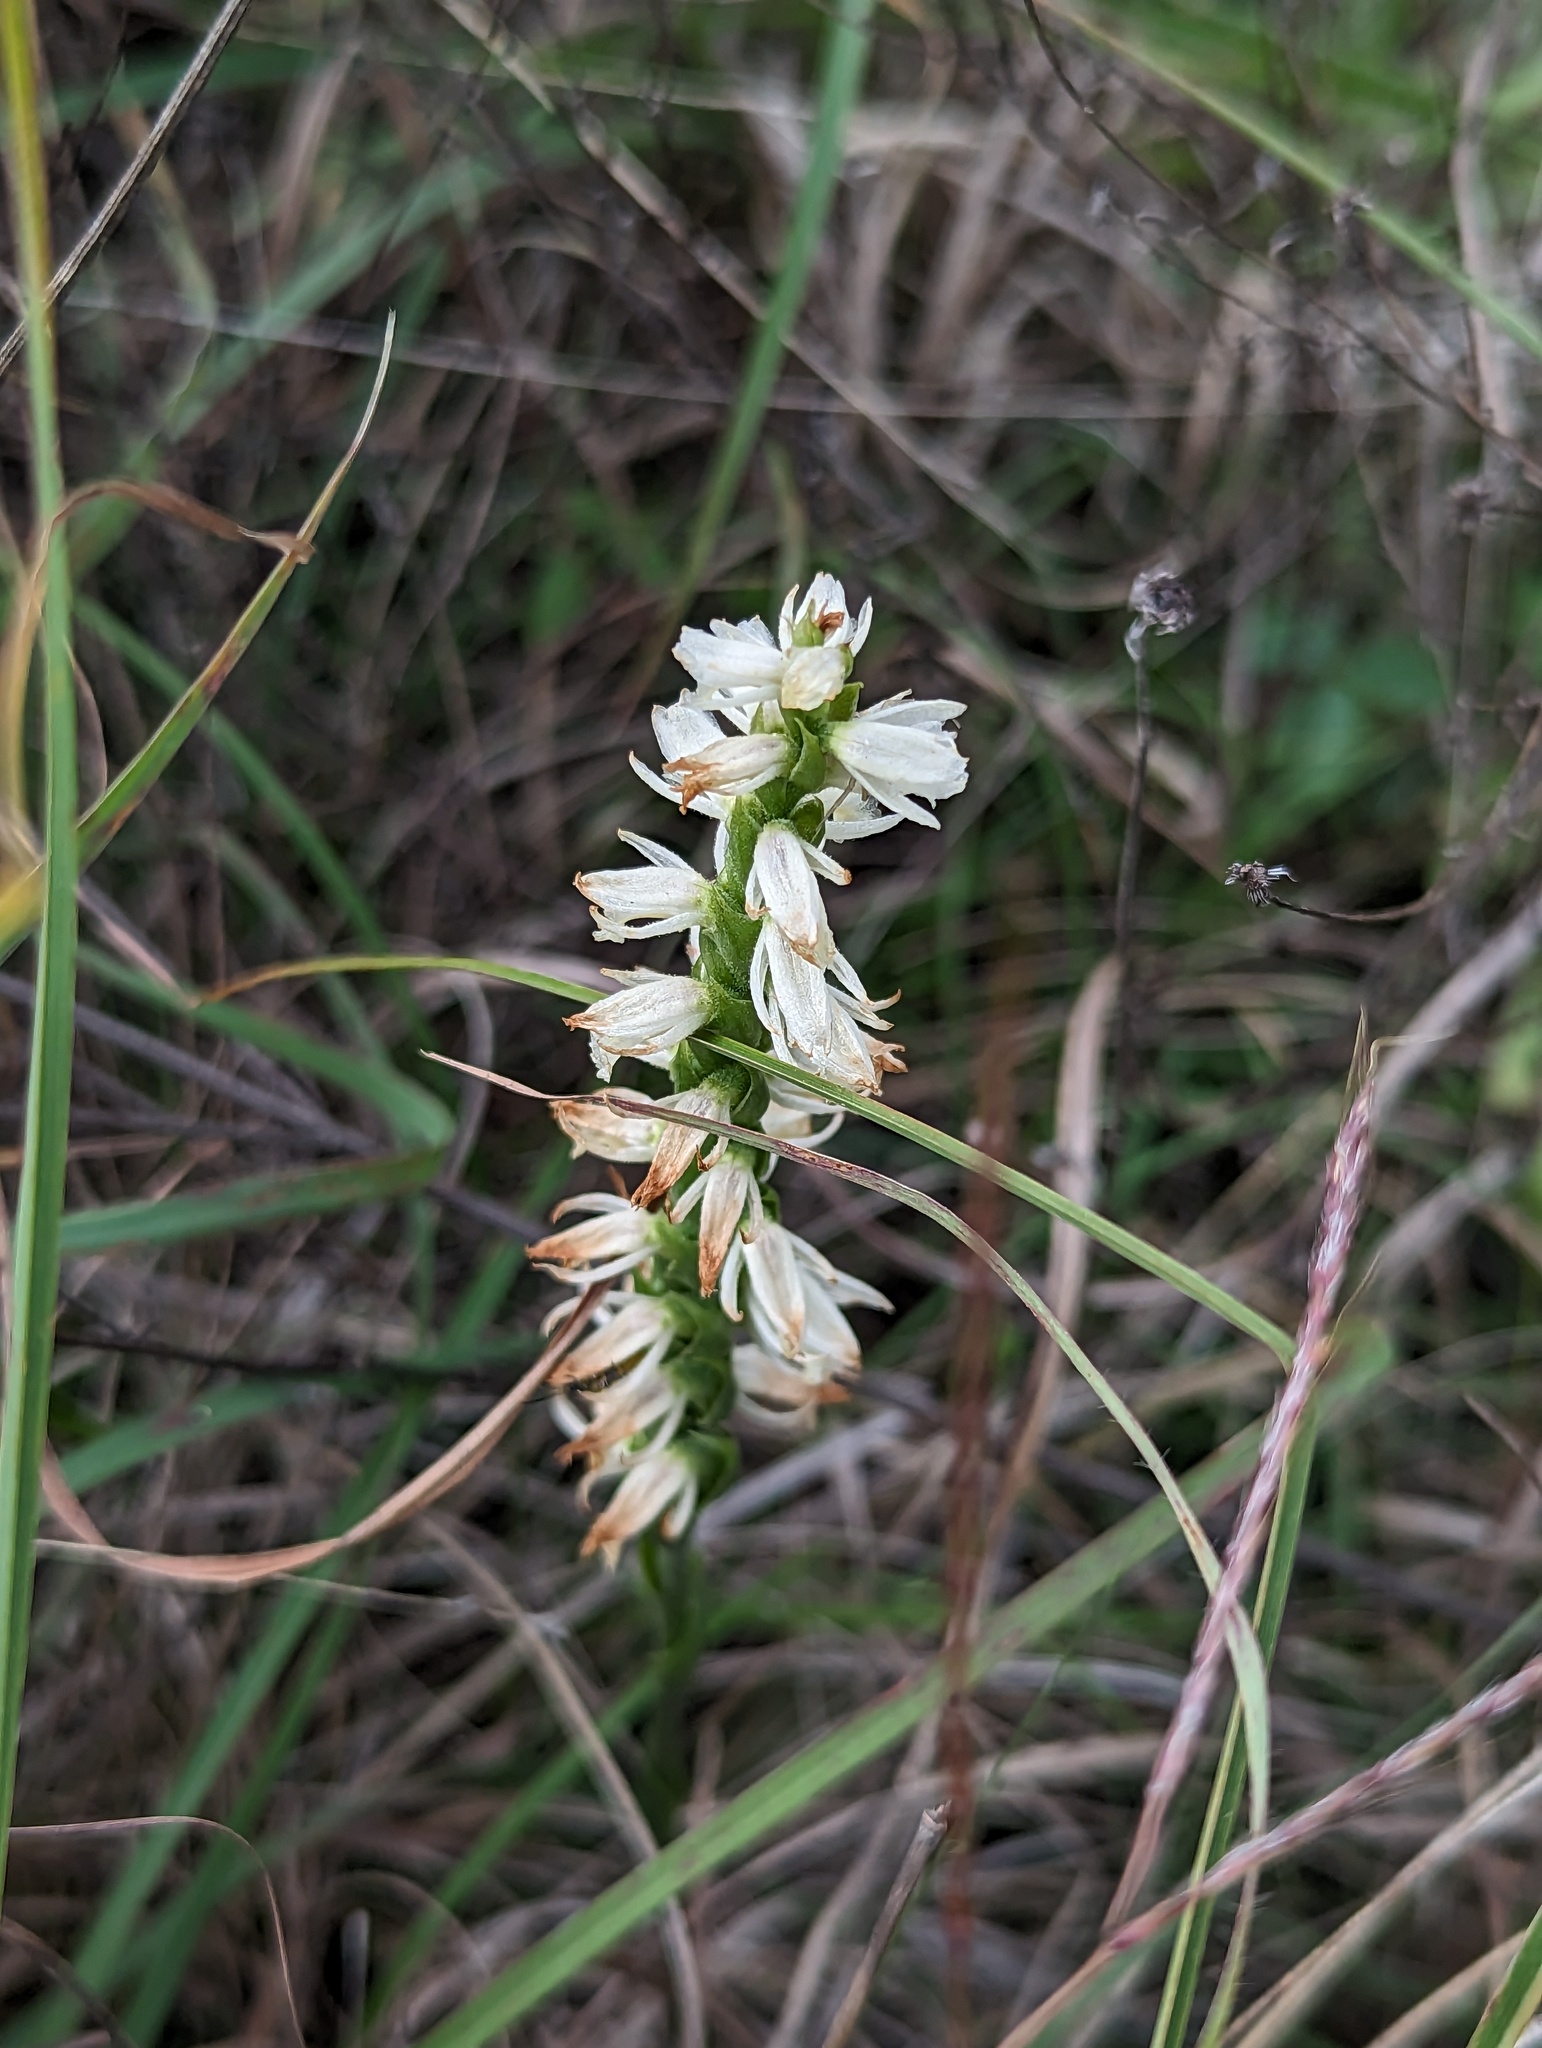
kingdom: Plantae
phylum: Tracheophyta
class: Liliopsida
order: Asparagales
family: Orchidaceae
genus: Spiranthes
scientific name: Spiranthes magnicamporum
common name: Great plains ladies'-tresses
